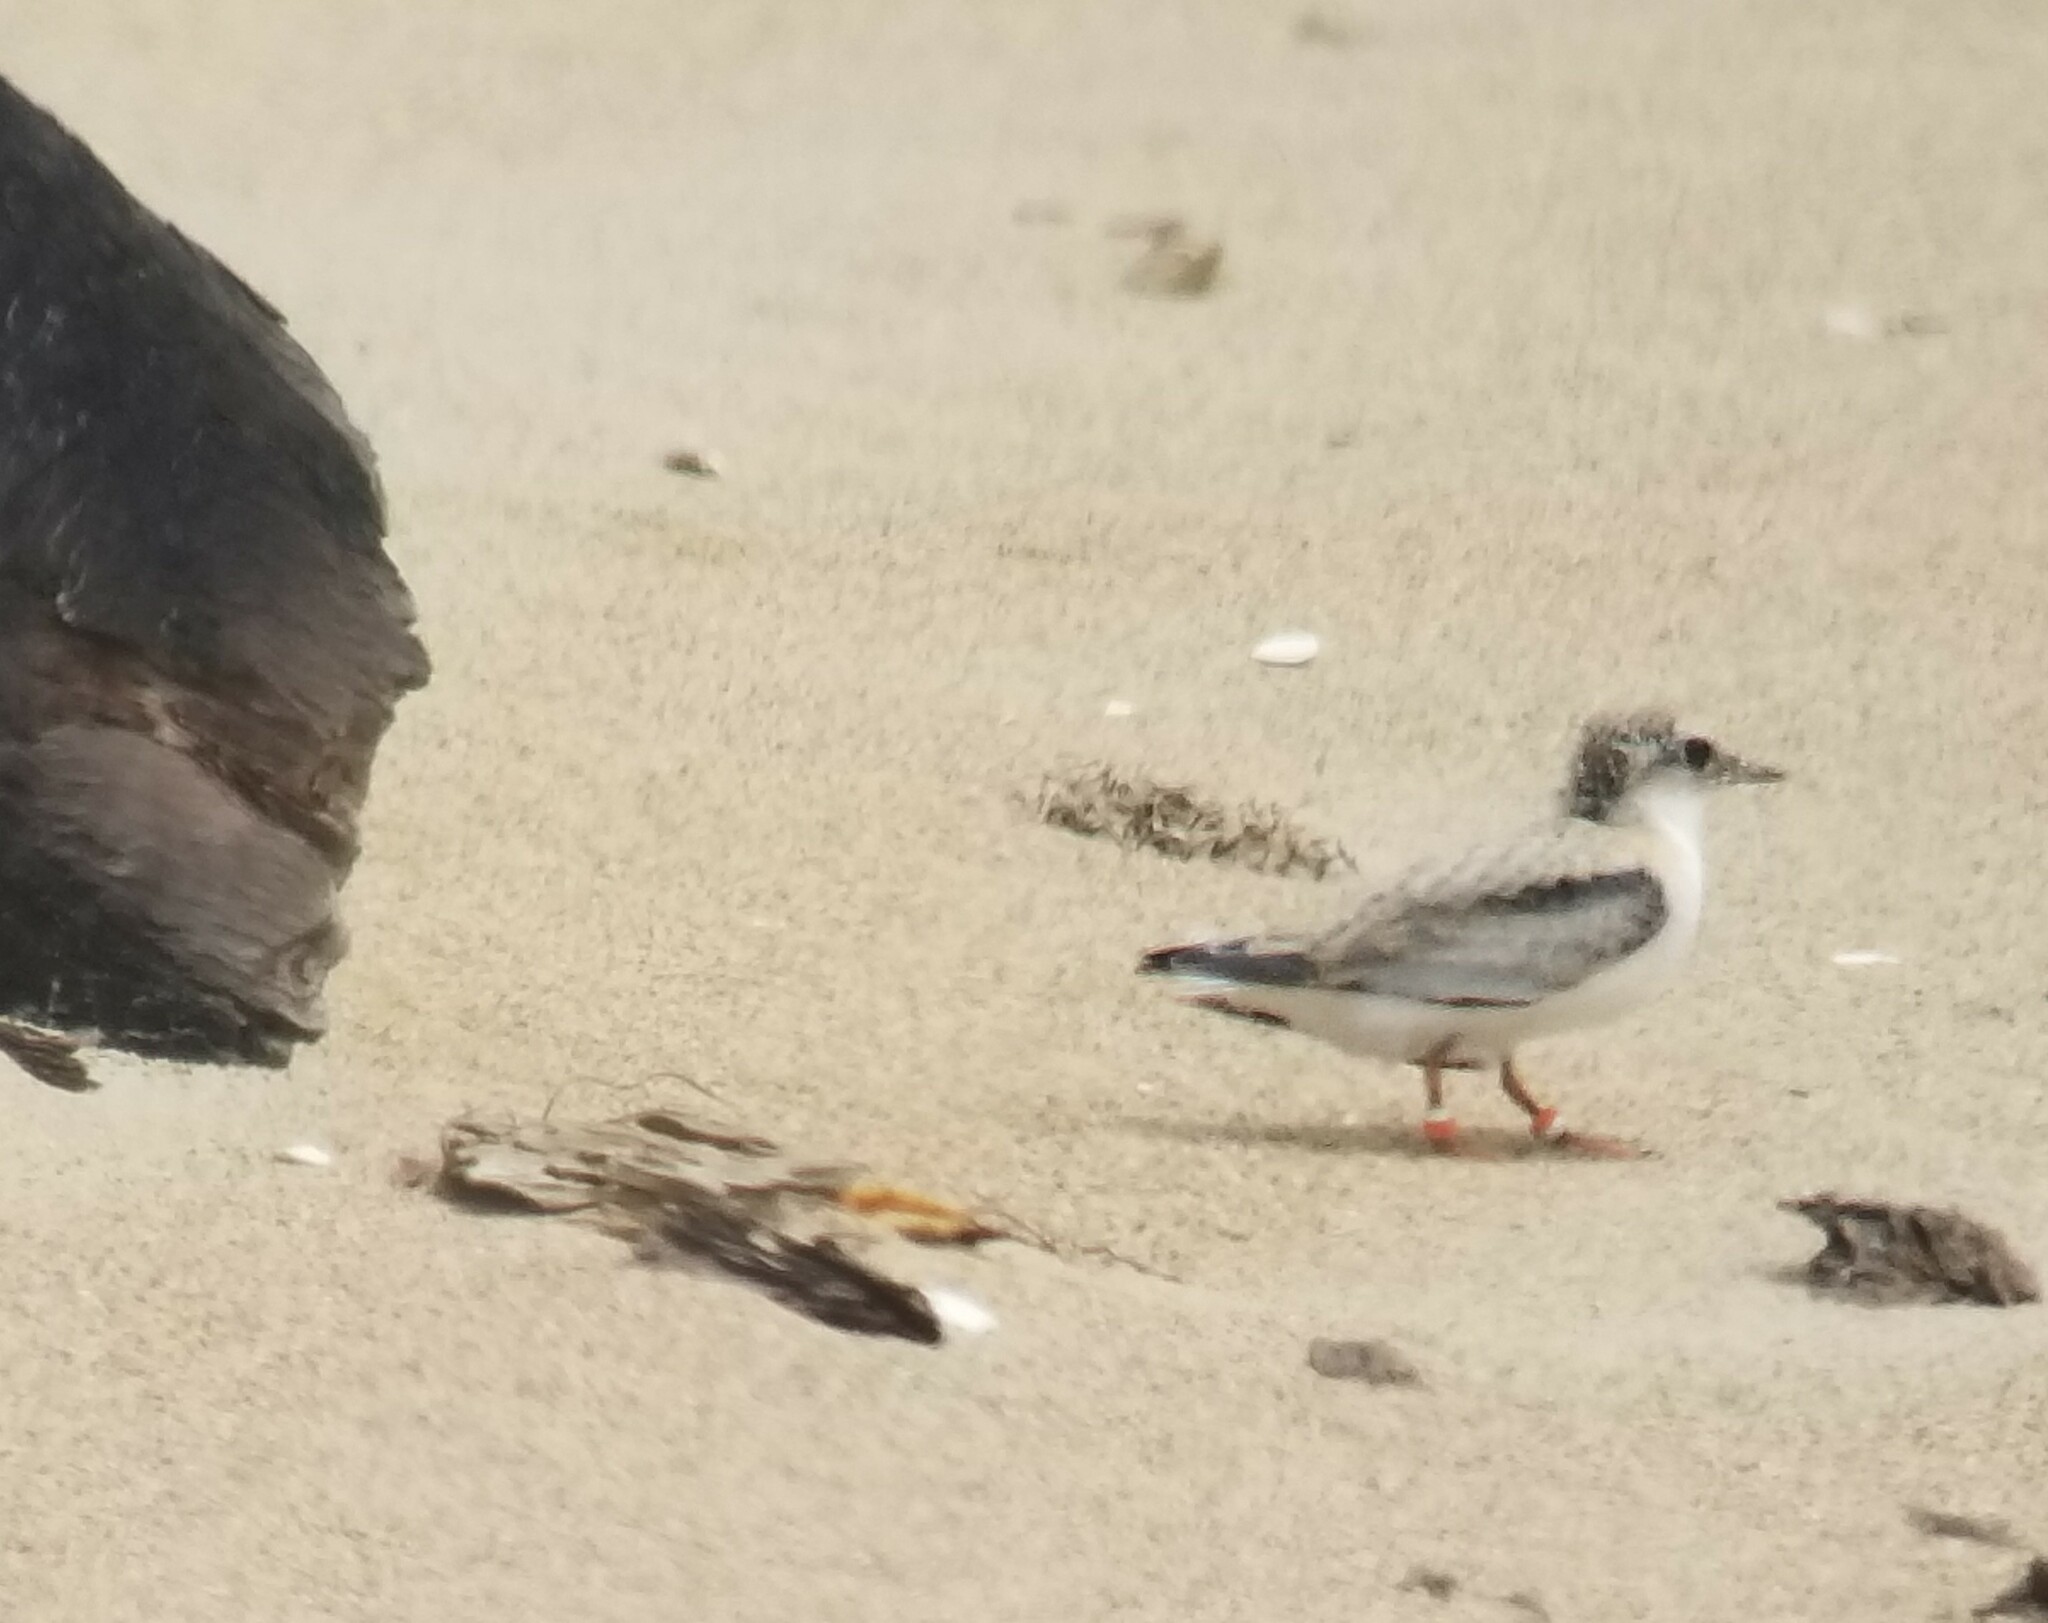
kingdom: Animalia
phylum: Chordata
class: Aves
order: Charadriiformes
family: Laridae
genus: Sternula
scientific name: Sternula antillarum
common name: Least tern
